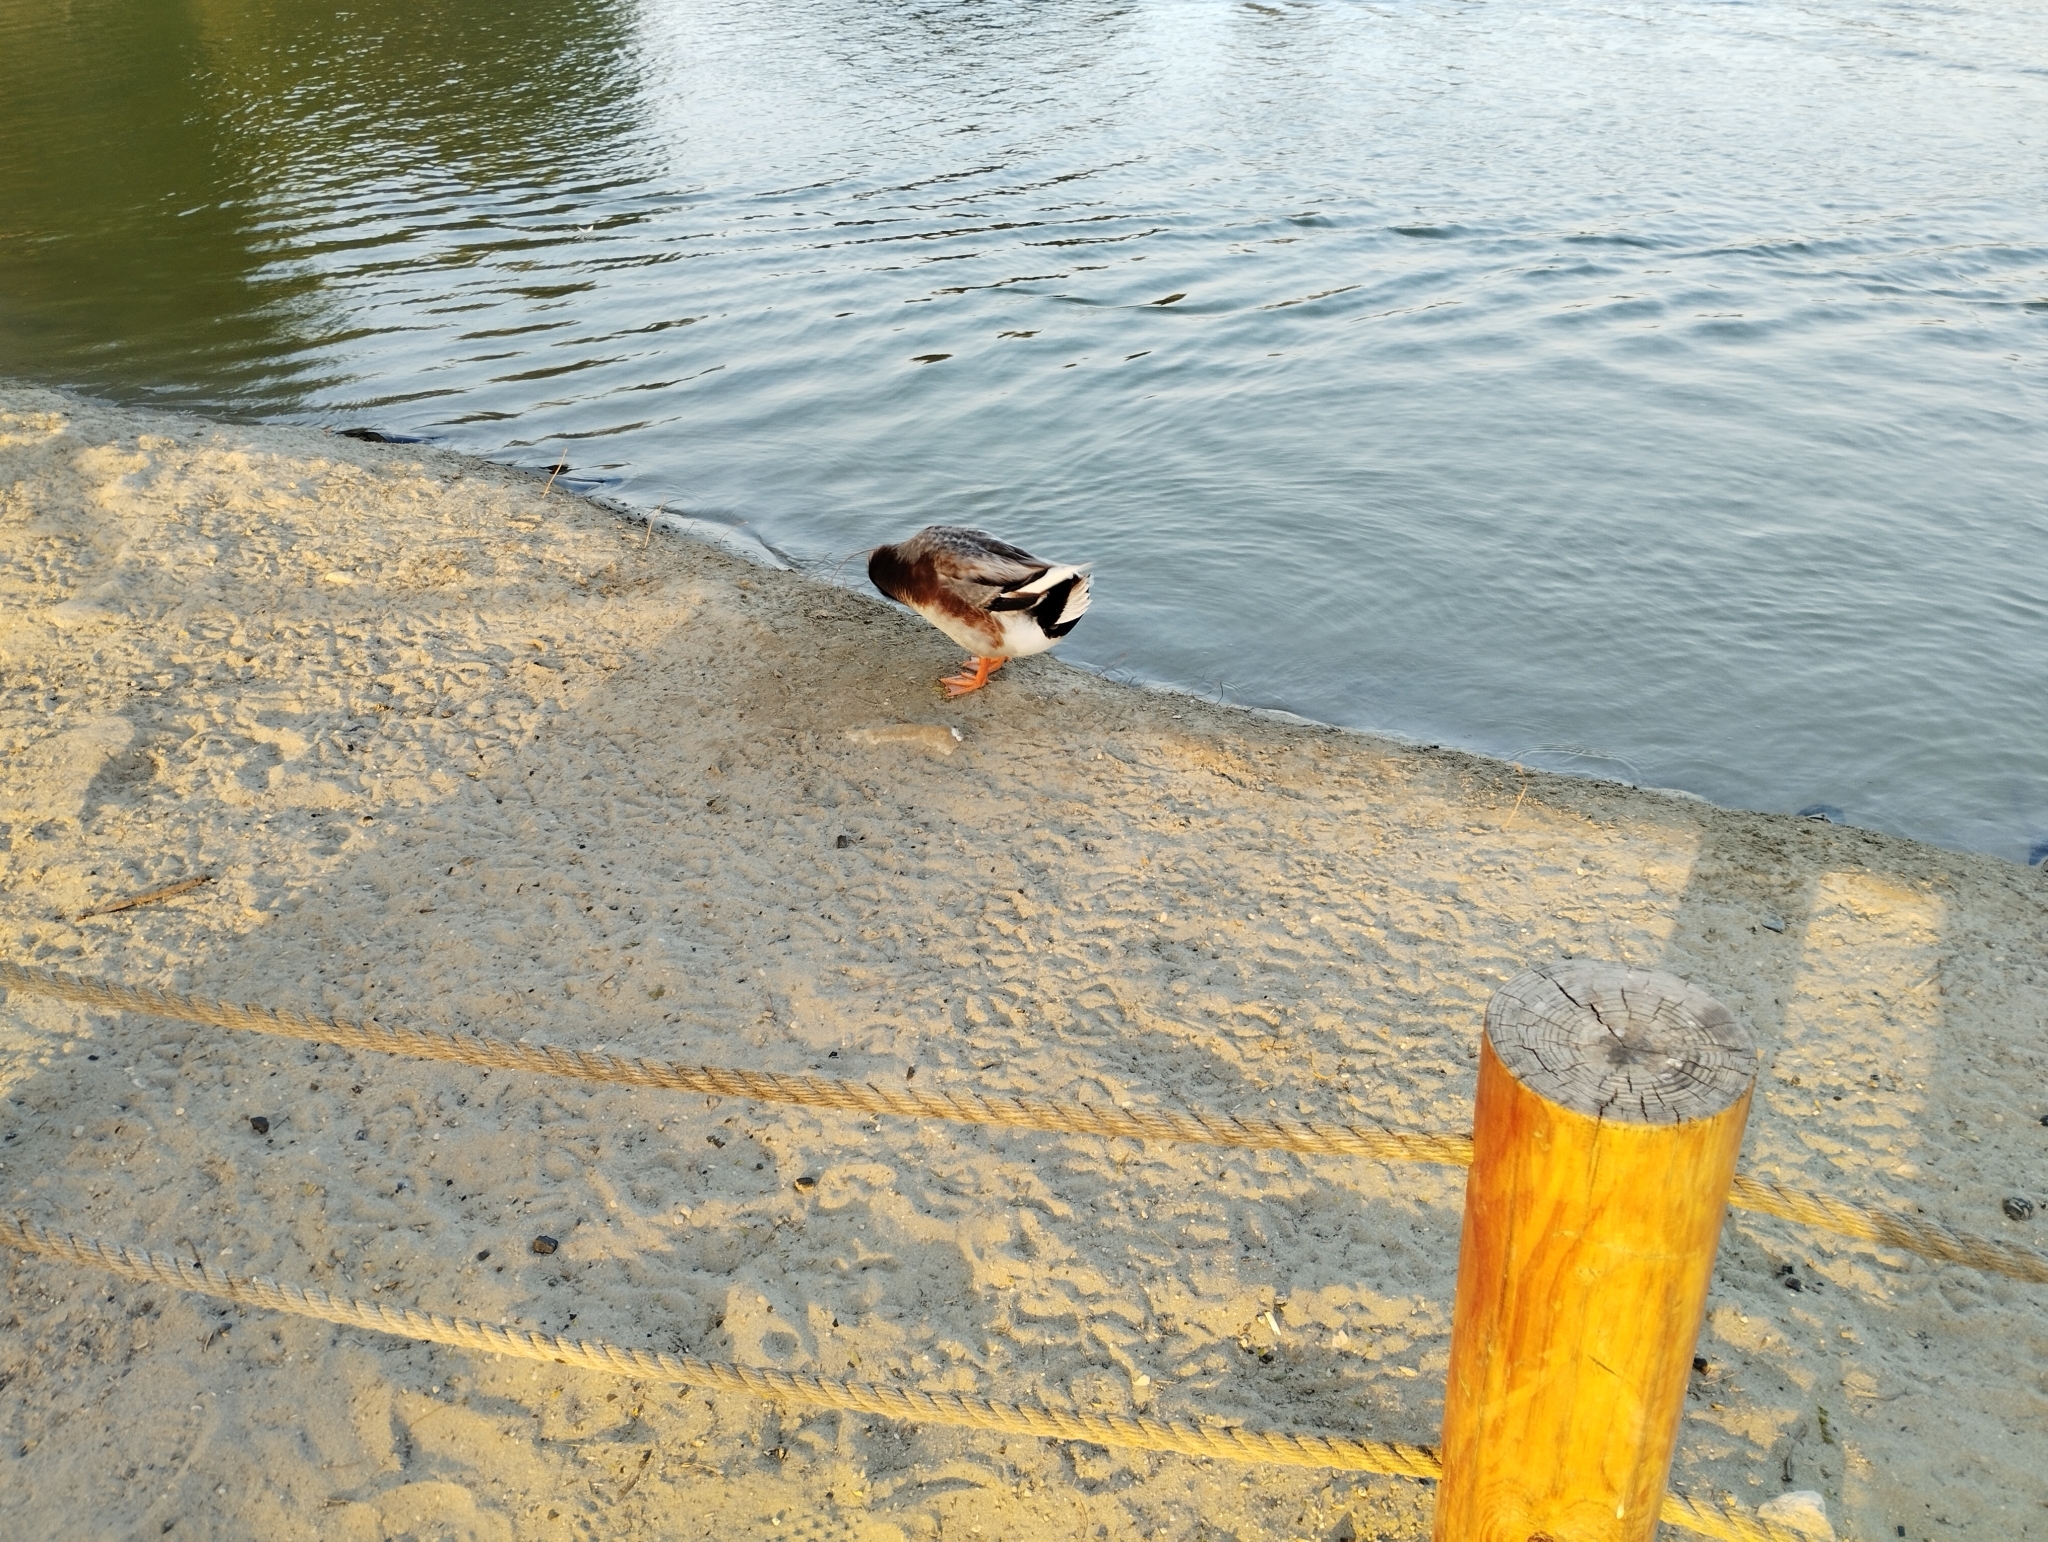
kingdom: Animalia
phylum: Chordata
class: Aves
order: Anseriformes
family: Anatidae
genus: Anas
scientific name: Anas platyrhynchos
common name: Mallard
